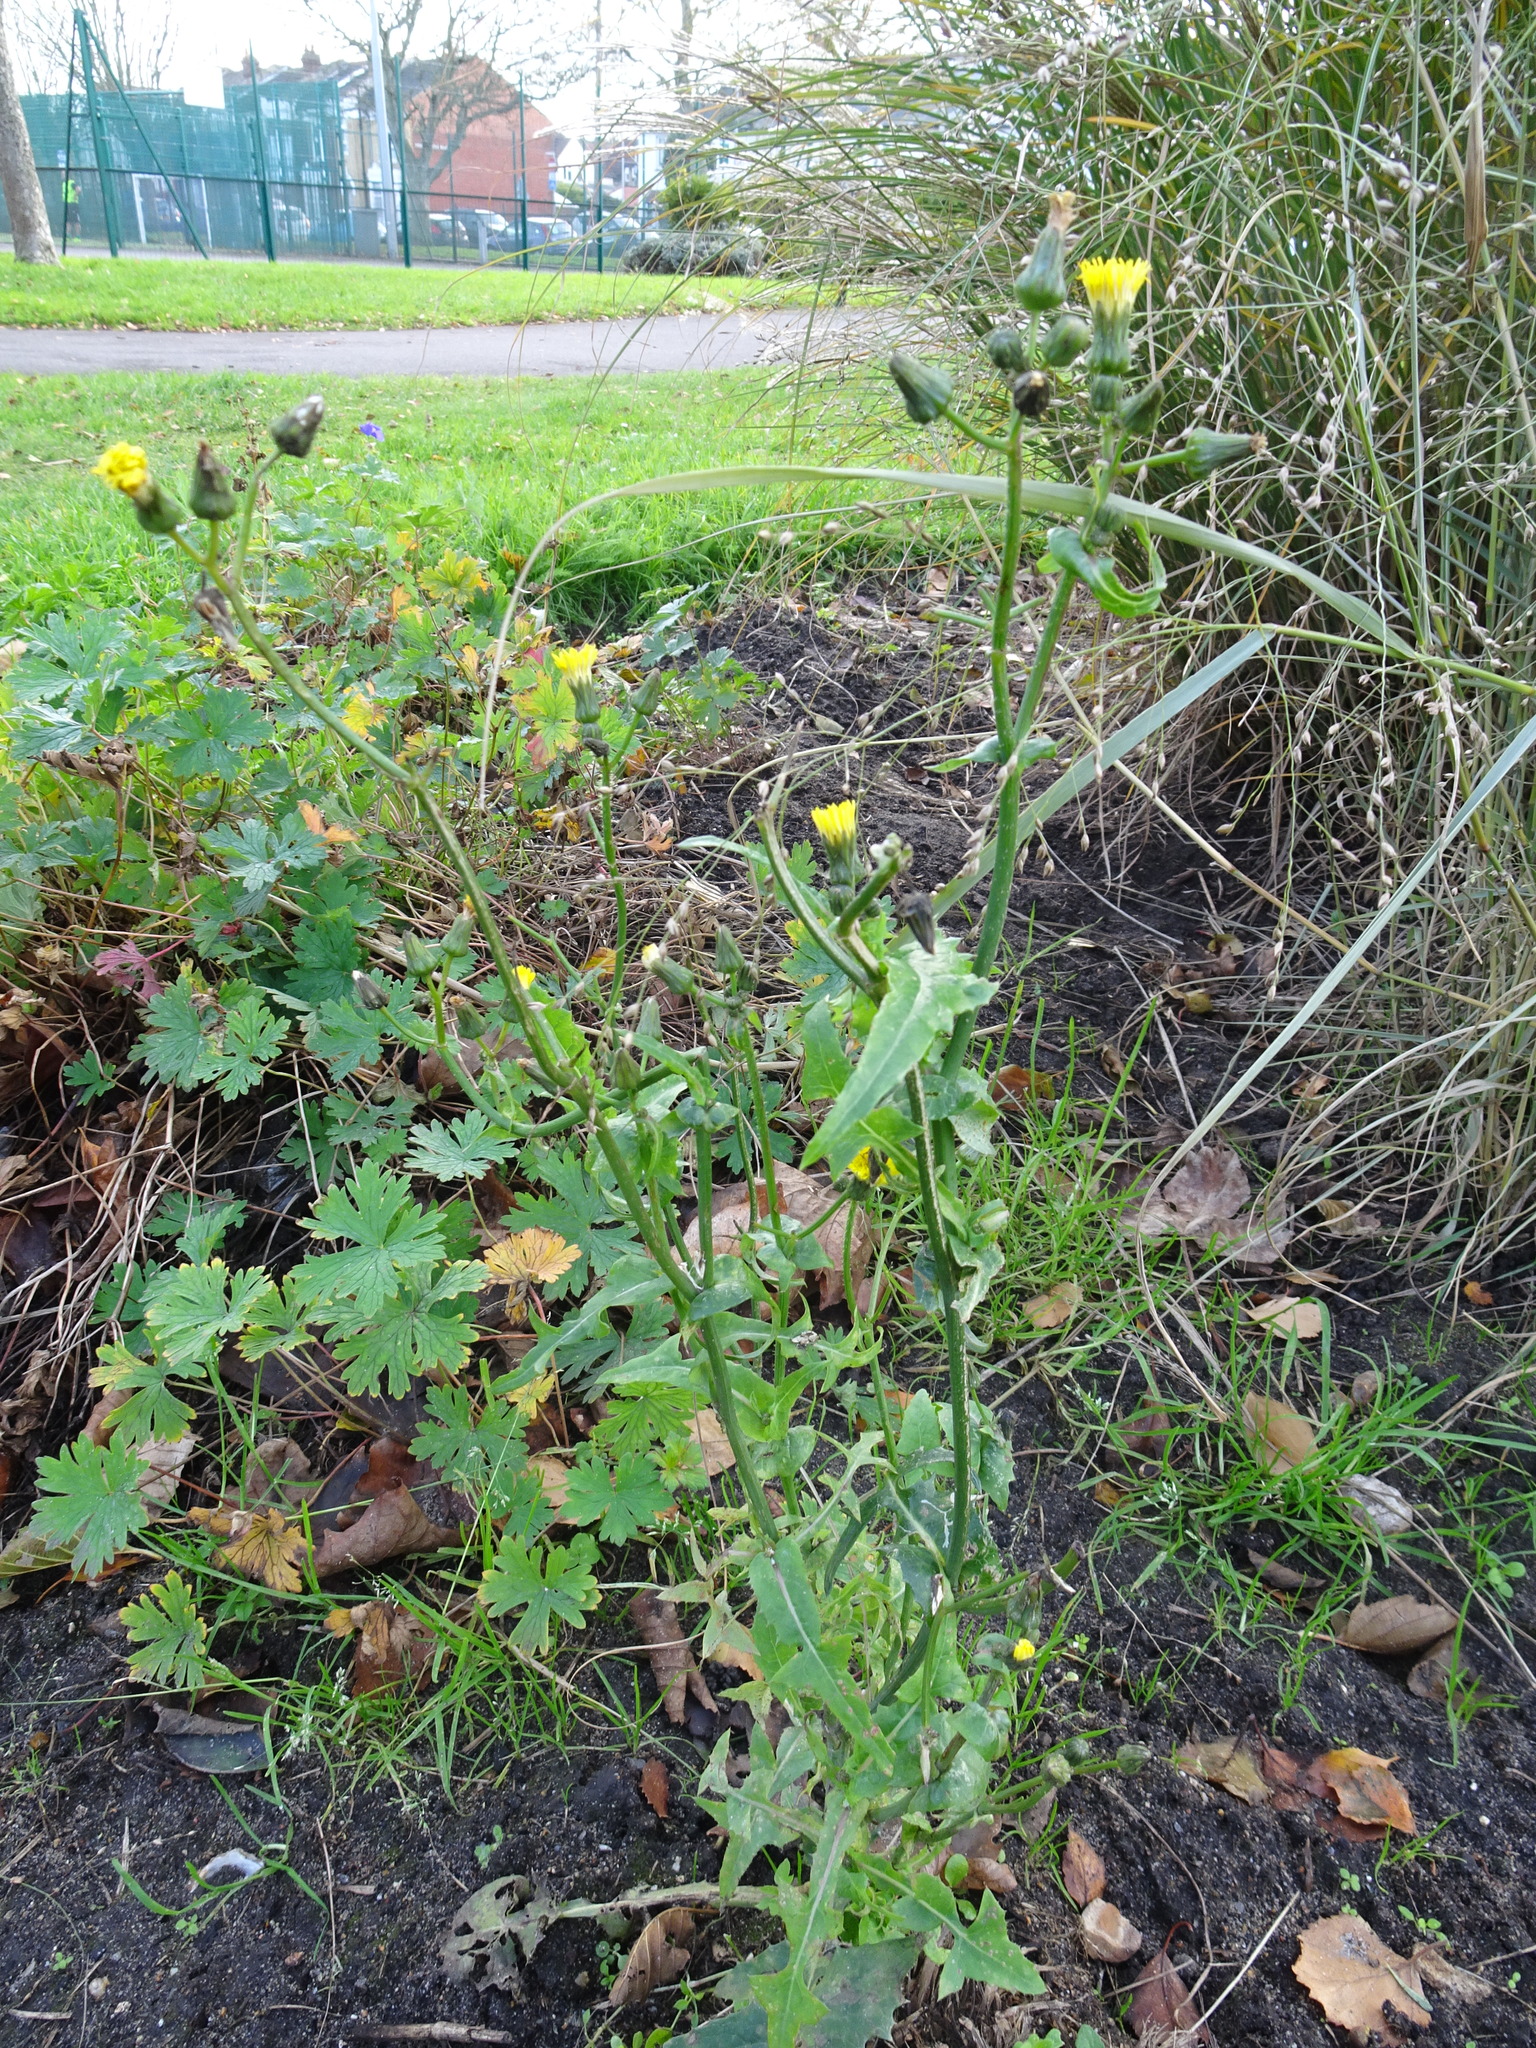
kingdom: Plantae
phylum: Tracheophyta
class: Magnoliopsida
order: Asterales
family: Asteraceae
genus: Sonchus
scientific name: Sonchus oleraceus
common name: Common sowthistle
